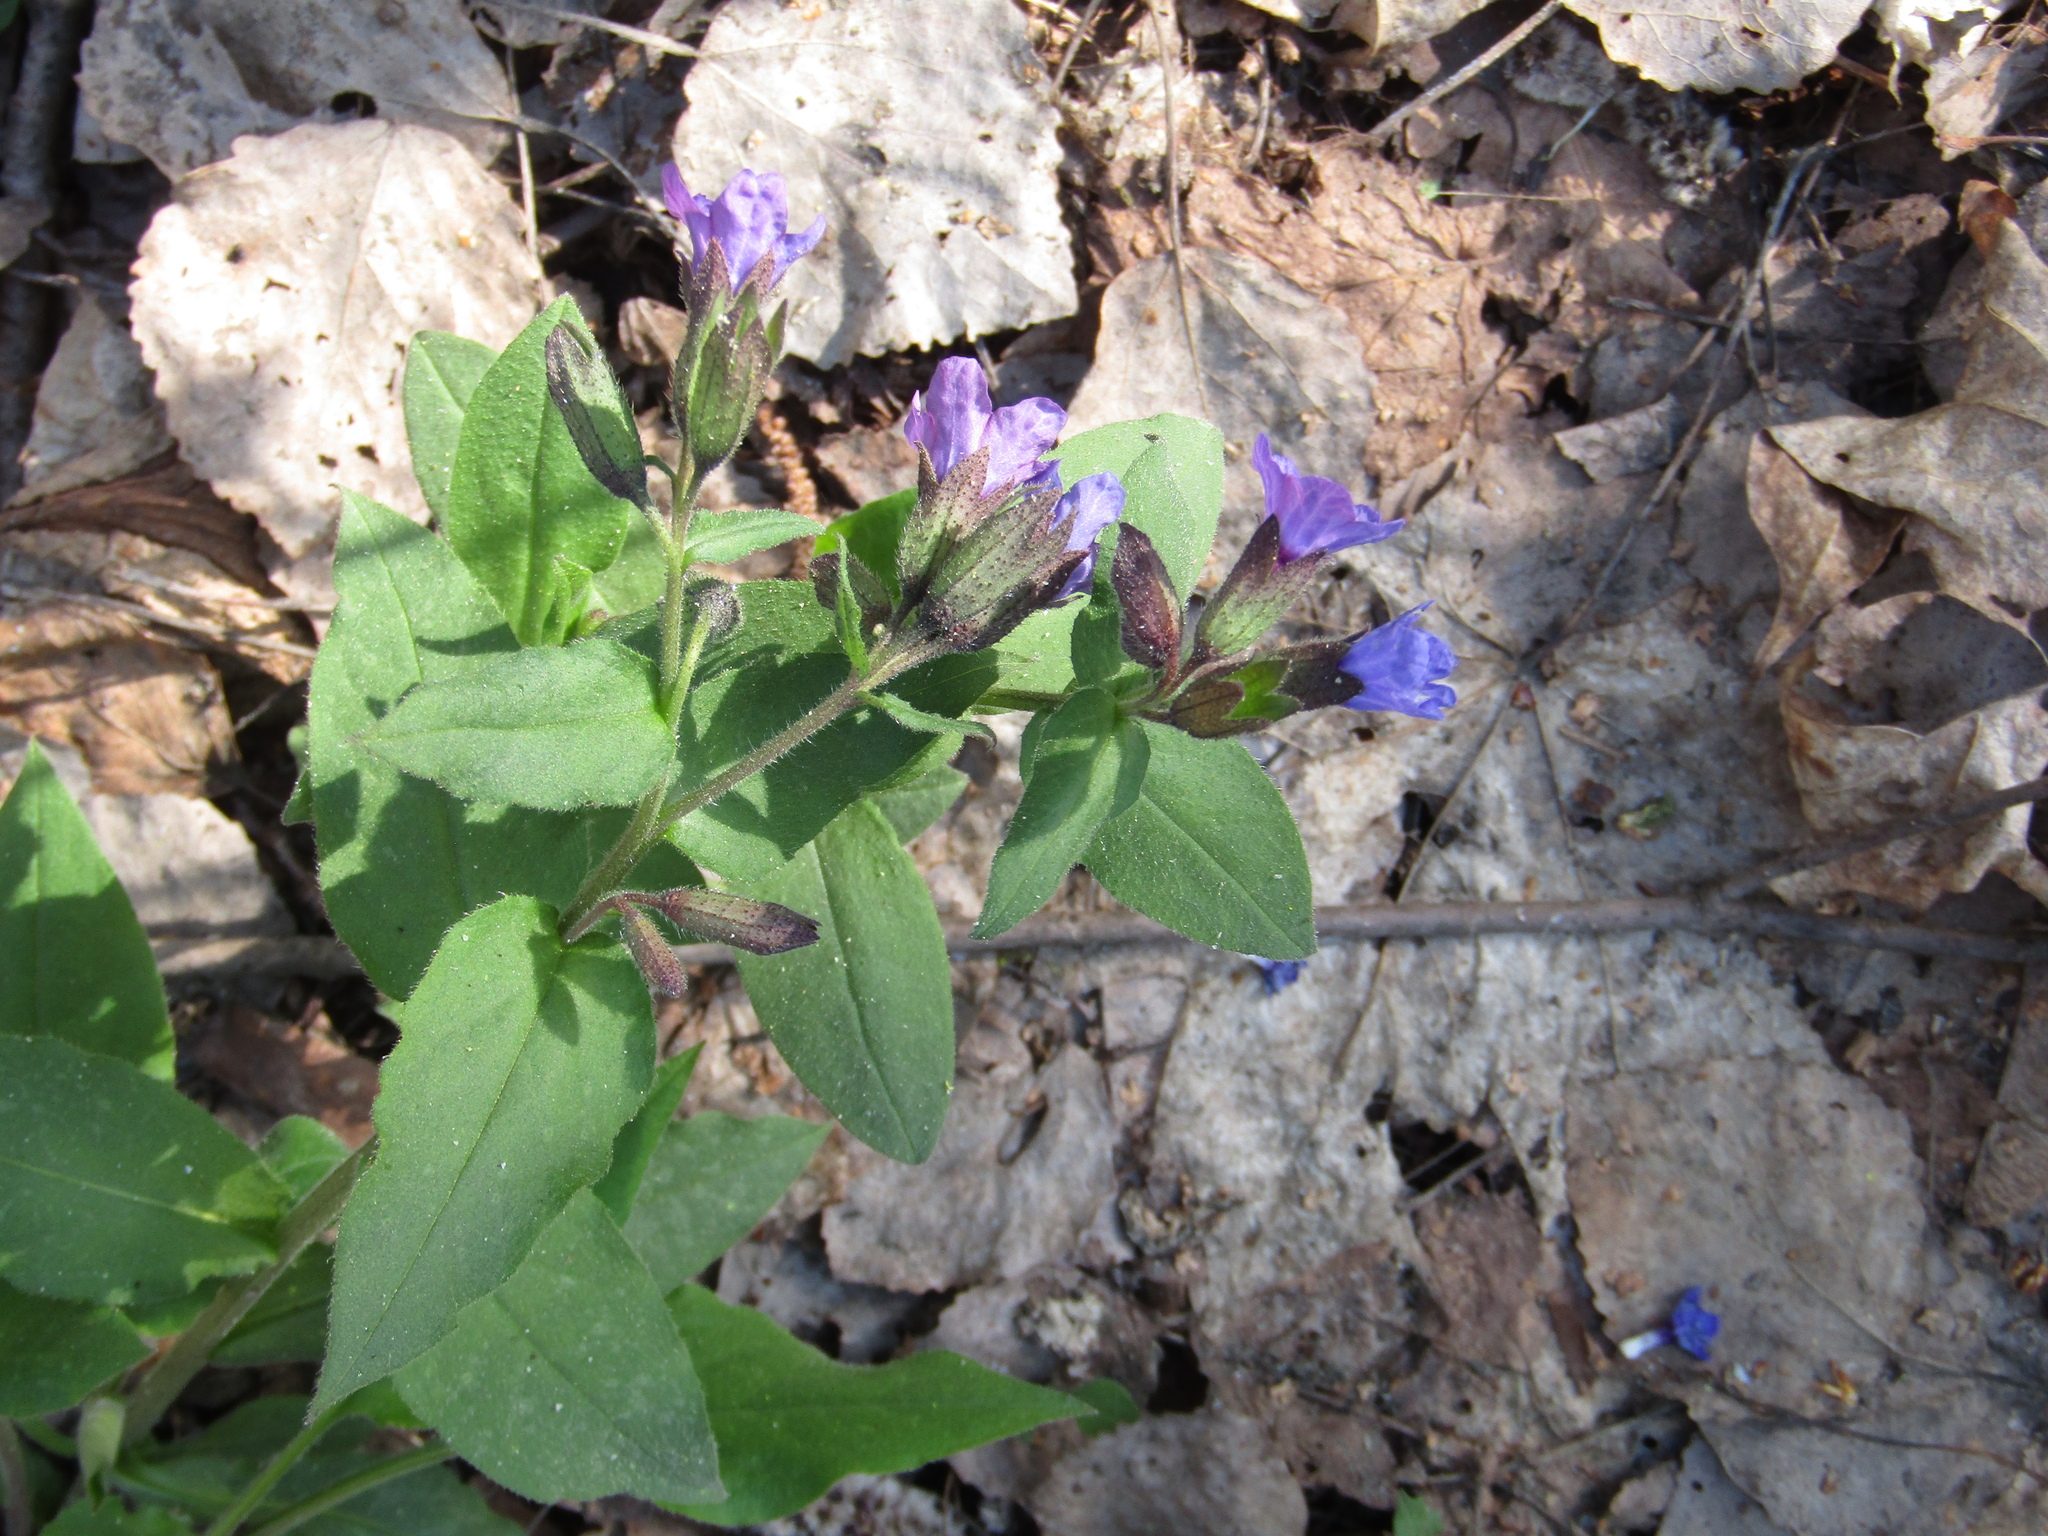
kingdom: Plantae
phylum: Tracheophyta
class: Magnoliopsida
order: Boraginales
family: Boraginaceae
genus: Pulmonaria
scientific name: Pulmonaria obscura
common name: Suffolk lungwort
